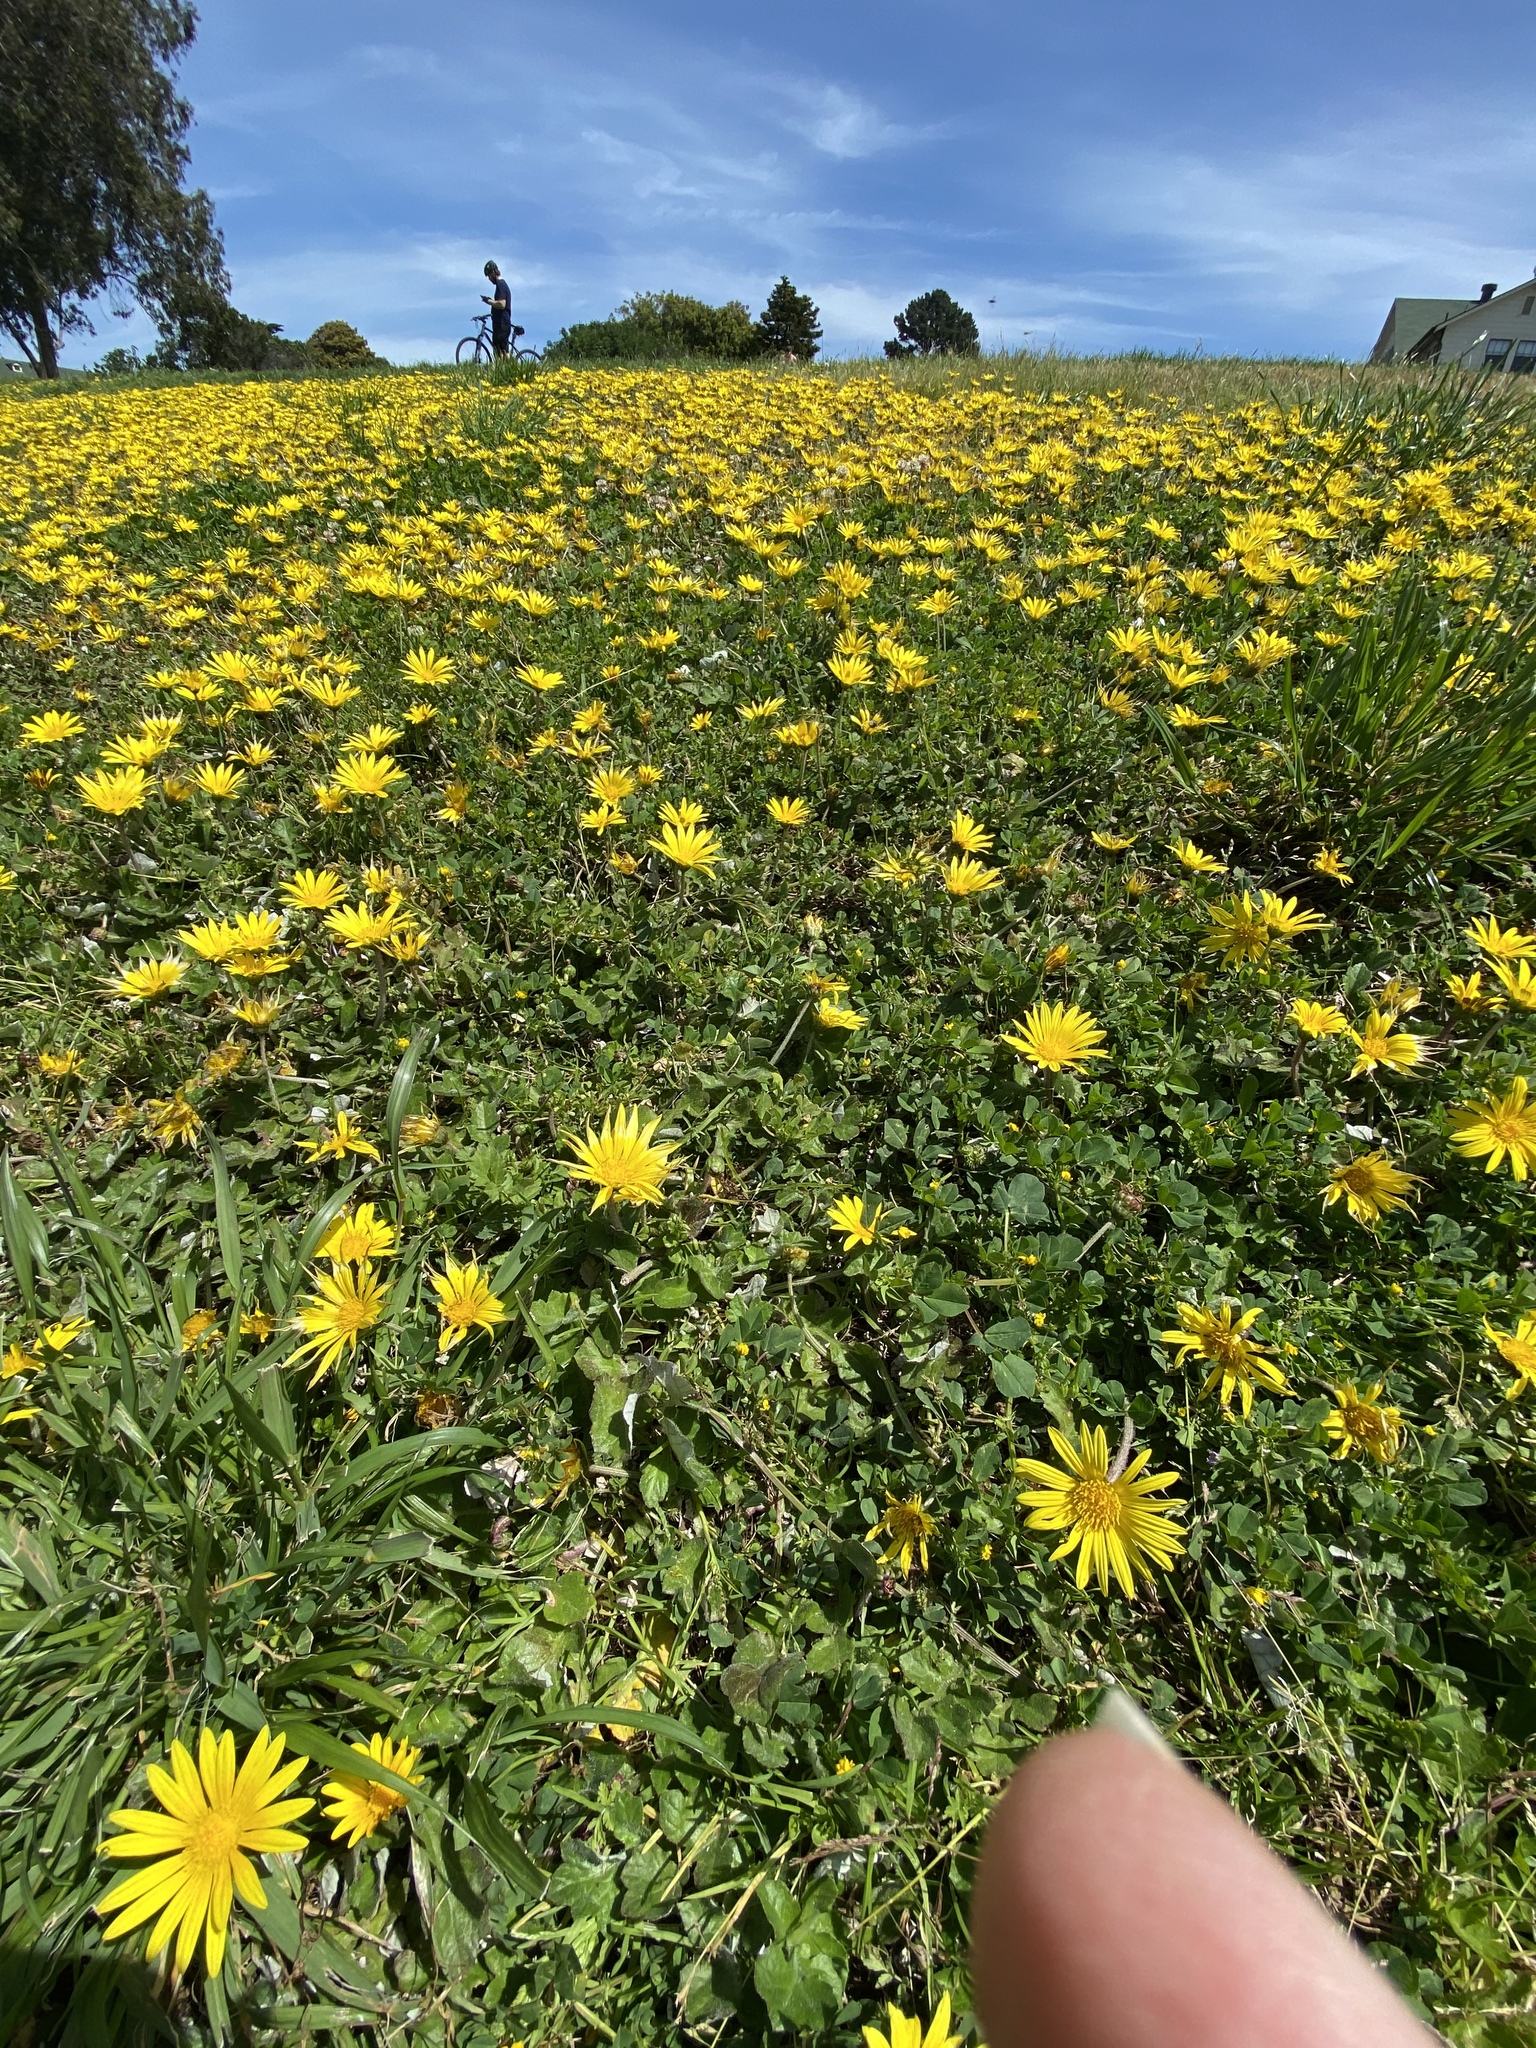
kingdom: Plantae
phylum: Tracheophyta
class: Magnoliopsida
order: Asterales
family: Asteraceae
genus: Arctotheca
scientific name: Arctotheca prostrata
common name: Capeweed
